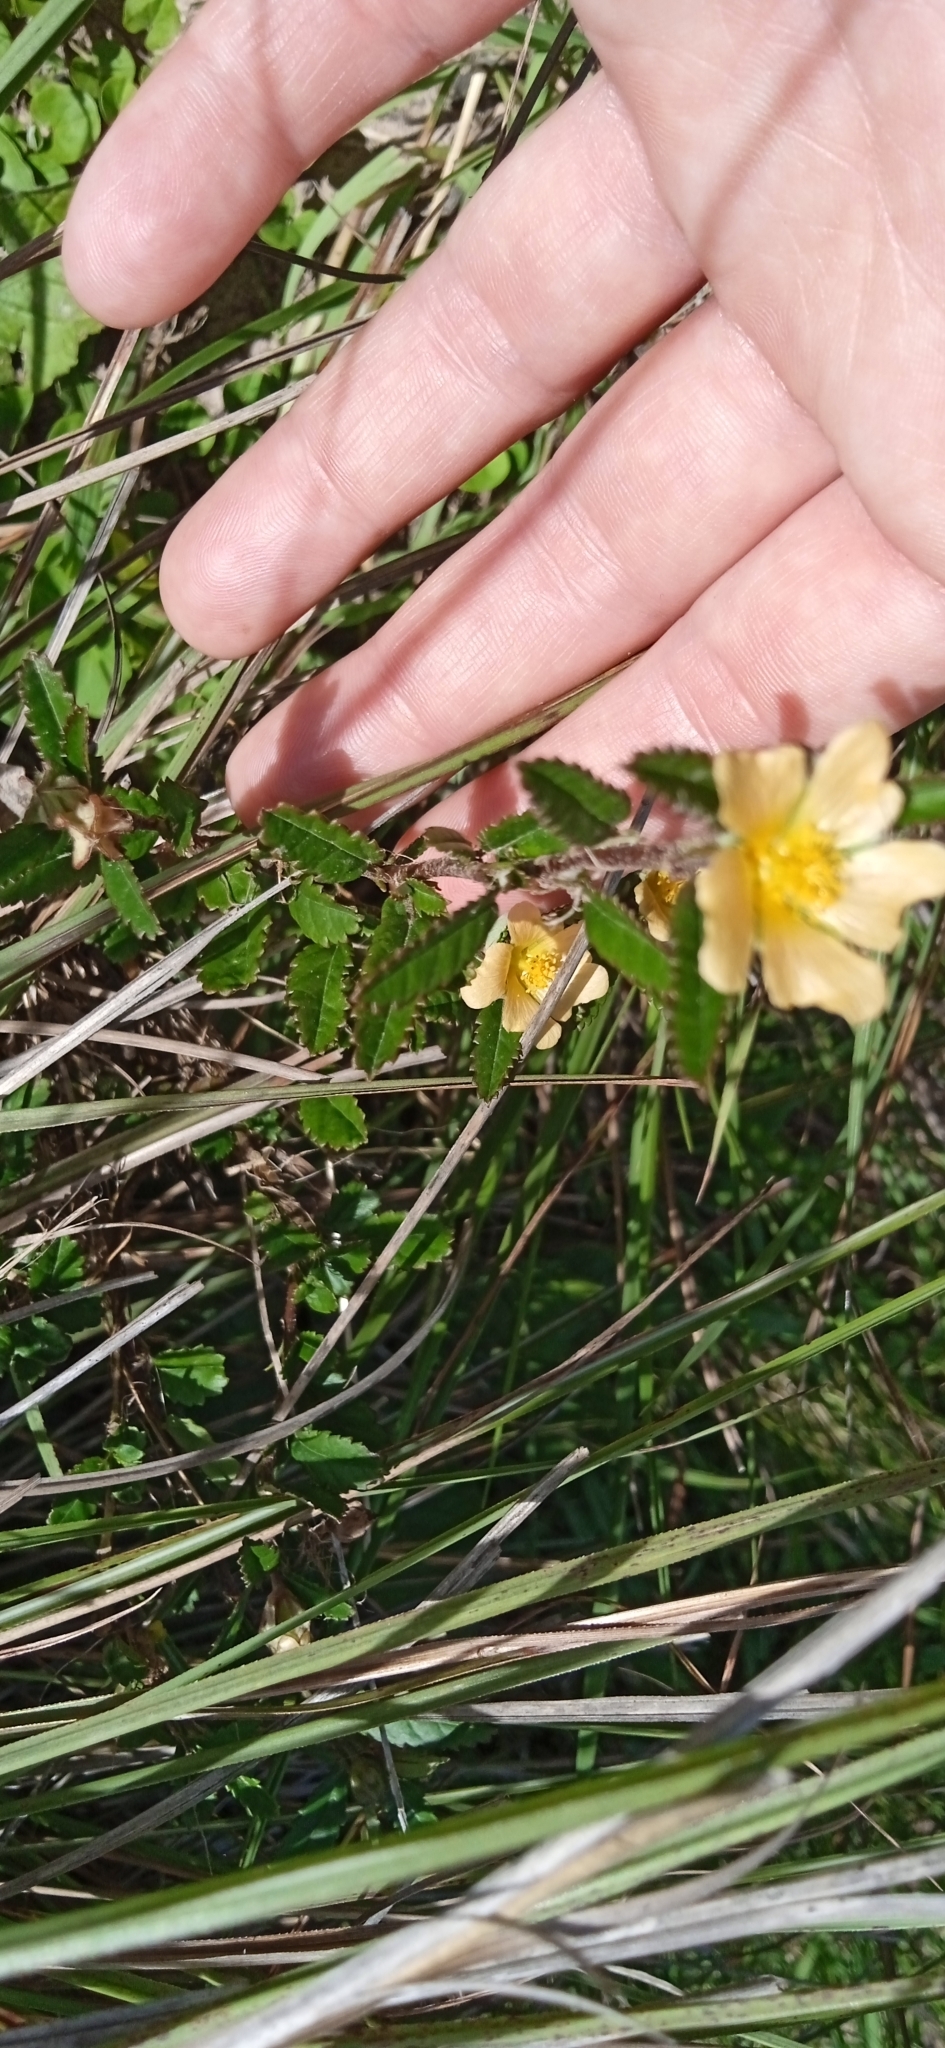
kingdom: Plantae
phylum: Tracheophyta
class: Magnoliopsida
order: Malvales
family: Malvaceae
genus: Sida
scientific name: Sida spinosa
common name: Prickly fanpetals
